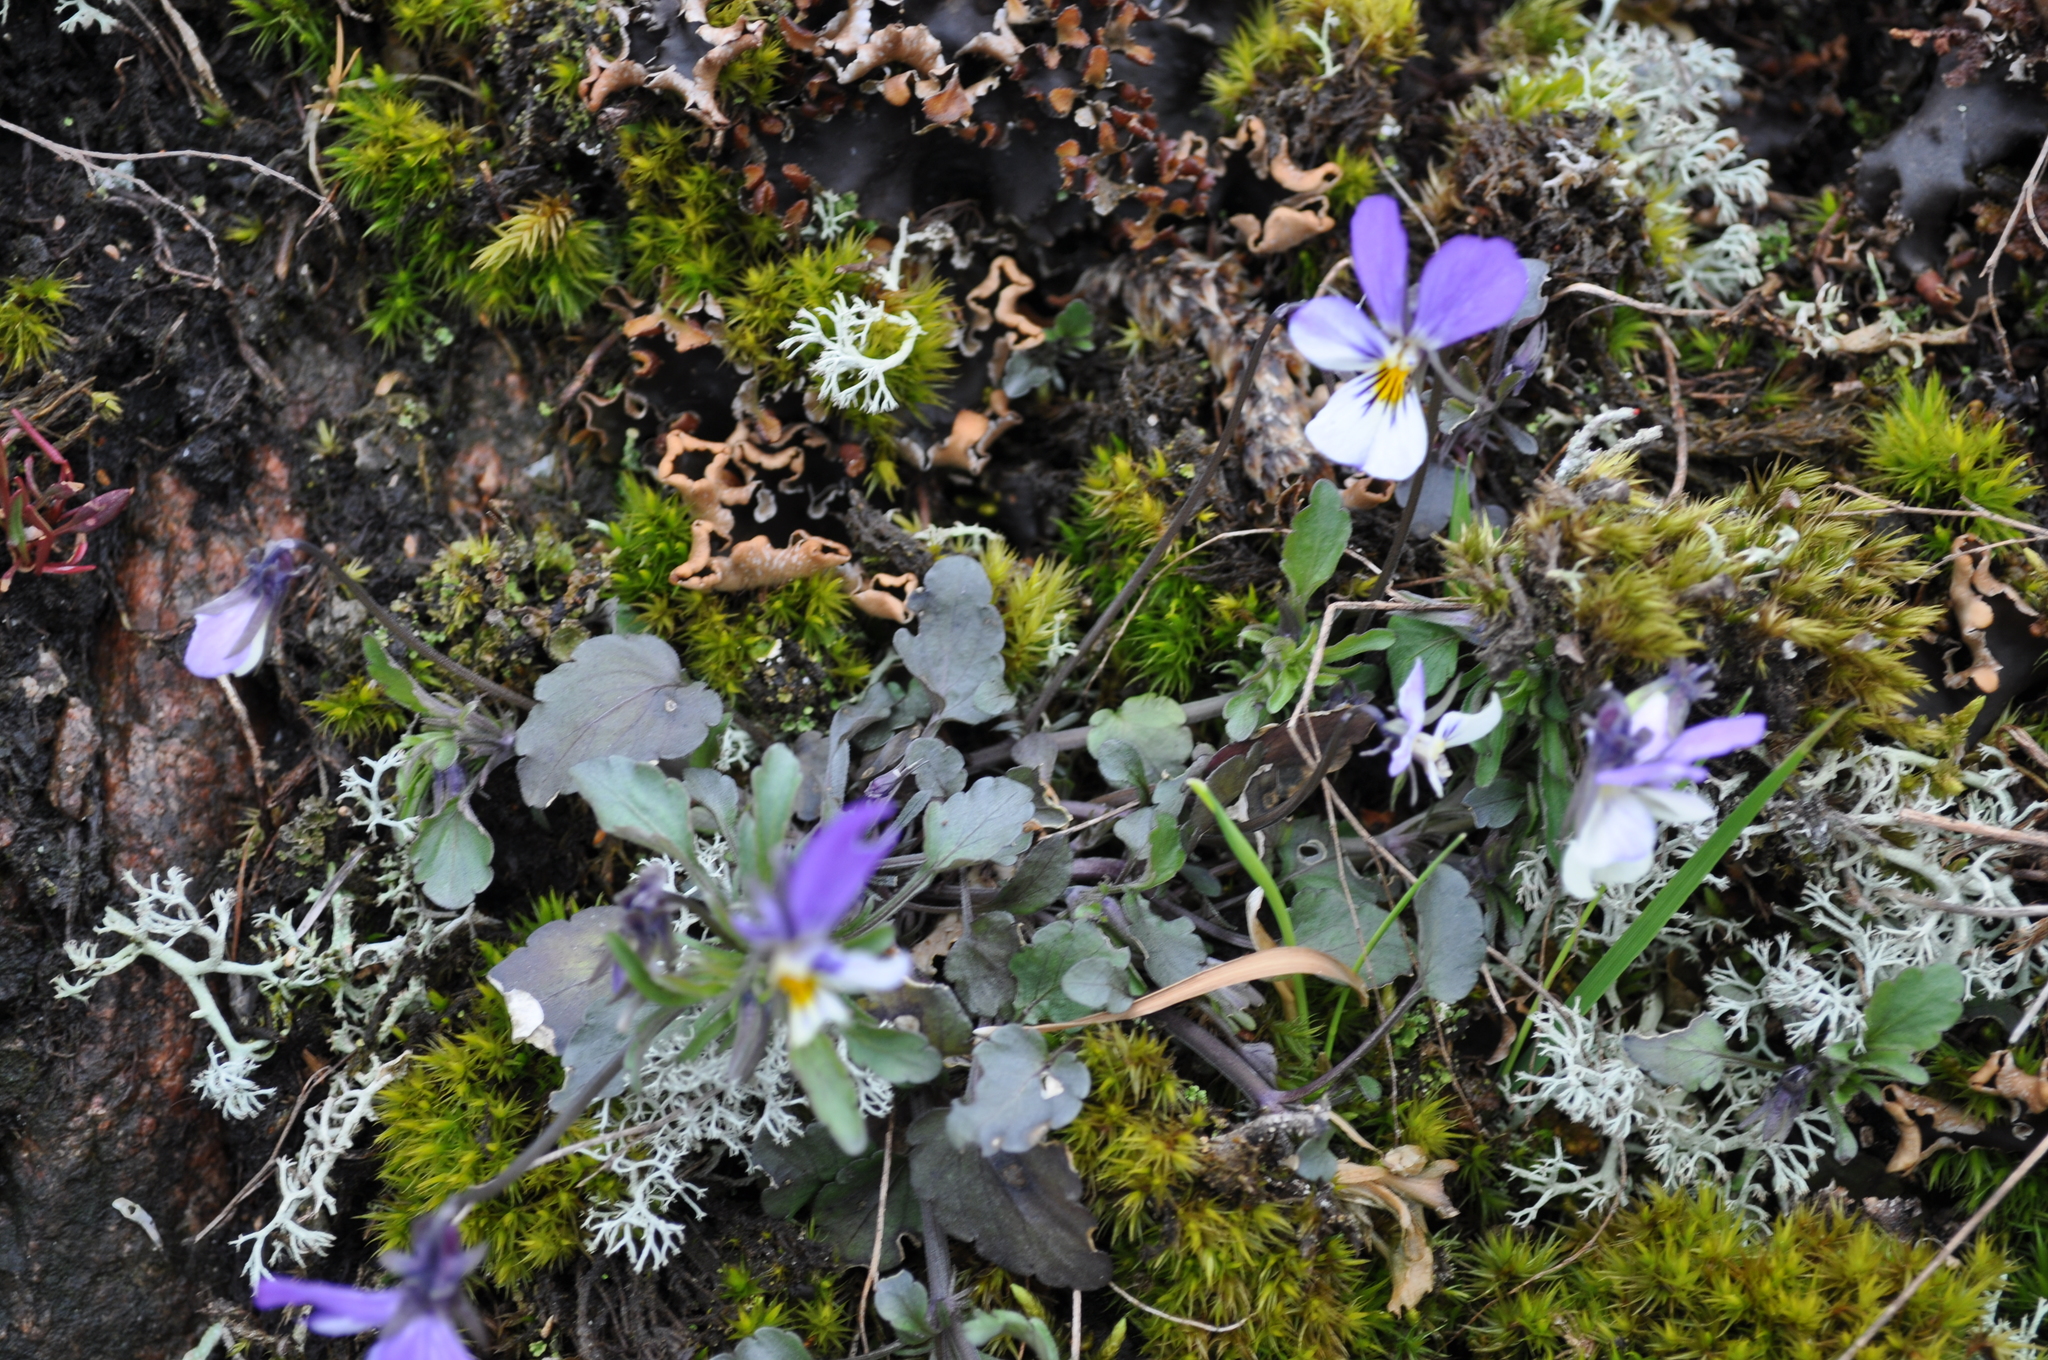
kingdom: Plantae
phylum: Tracheophyta
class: Magnoliopsida
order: Malpighiales
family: Violaceae
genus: Viola
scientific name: Viola tricolor
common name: Pansy
